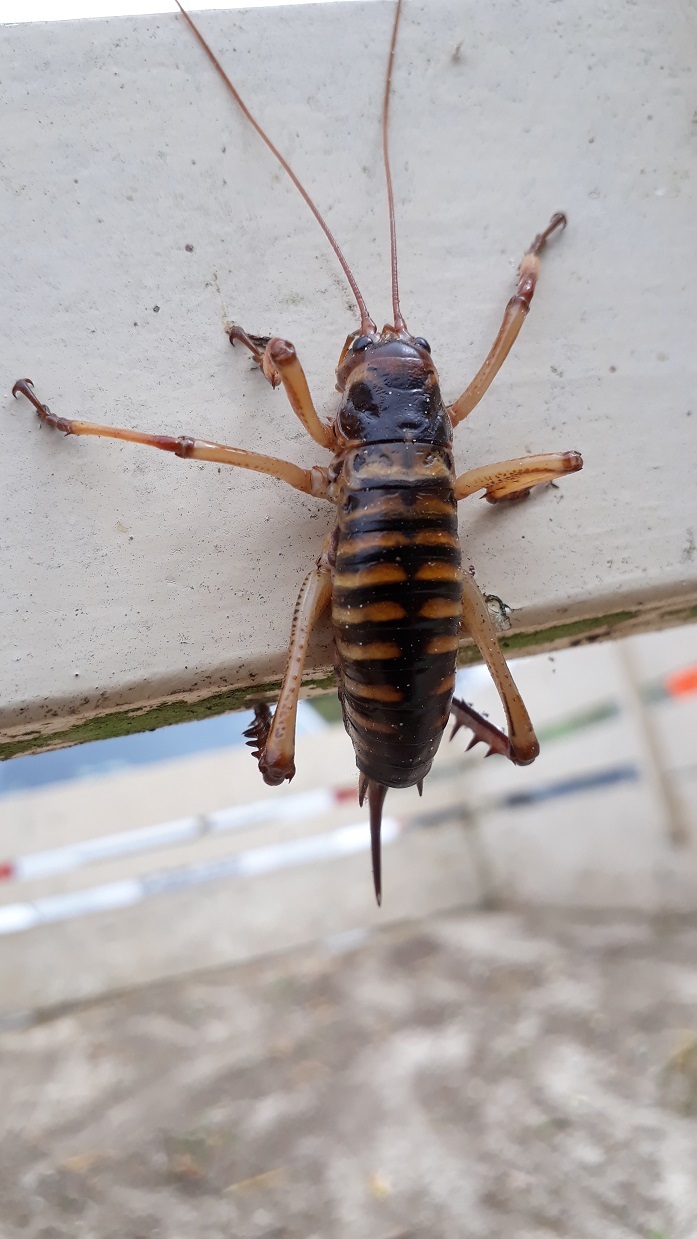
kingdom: Animalia
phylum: Arthropoda
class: Insecta
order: Orthoptera
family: Anostostomatidae
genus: Hemideina
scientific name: Hemideina crassidens
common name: Wellington tree weta
